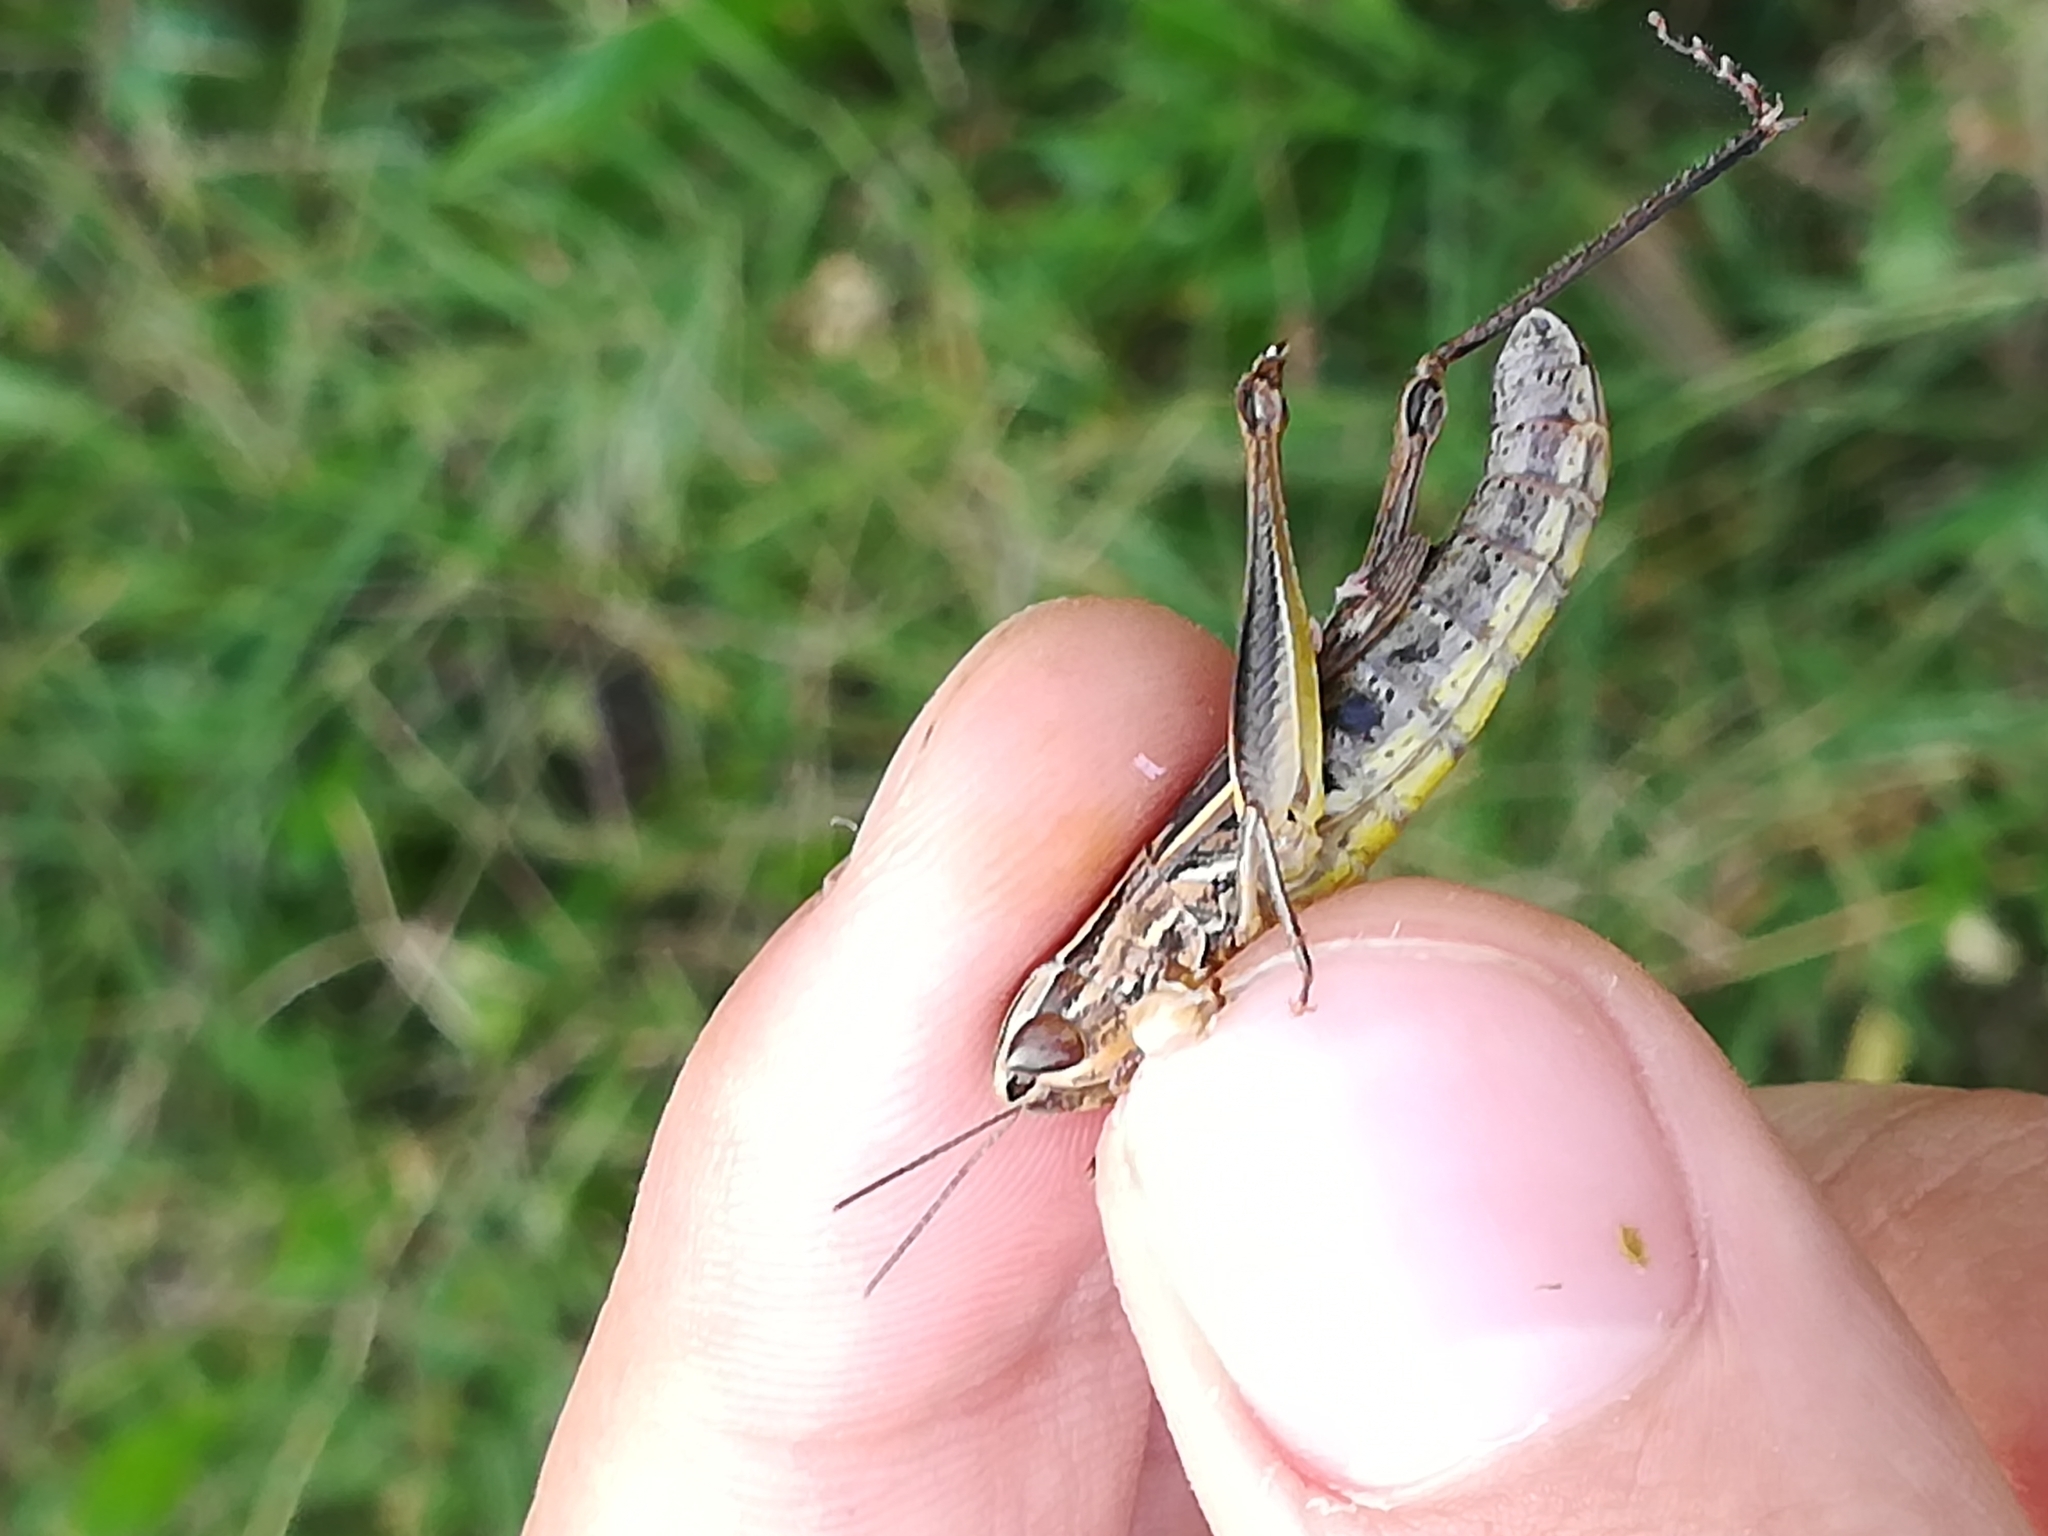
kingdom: Animalia
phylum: Arthropoda
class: Insecta
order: Orthoptera
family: Acrididae
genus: Euchorthippus
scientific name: Euchorthippus declivus
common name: Common straw grasshopper
